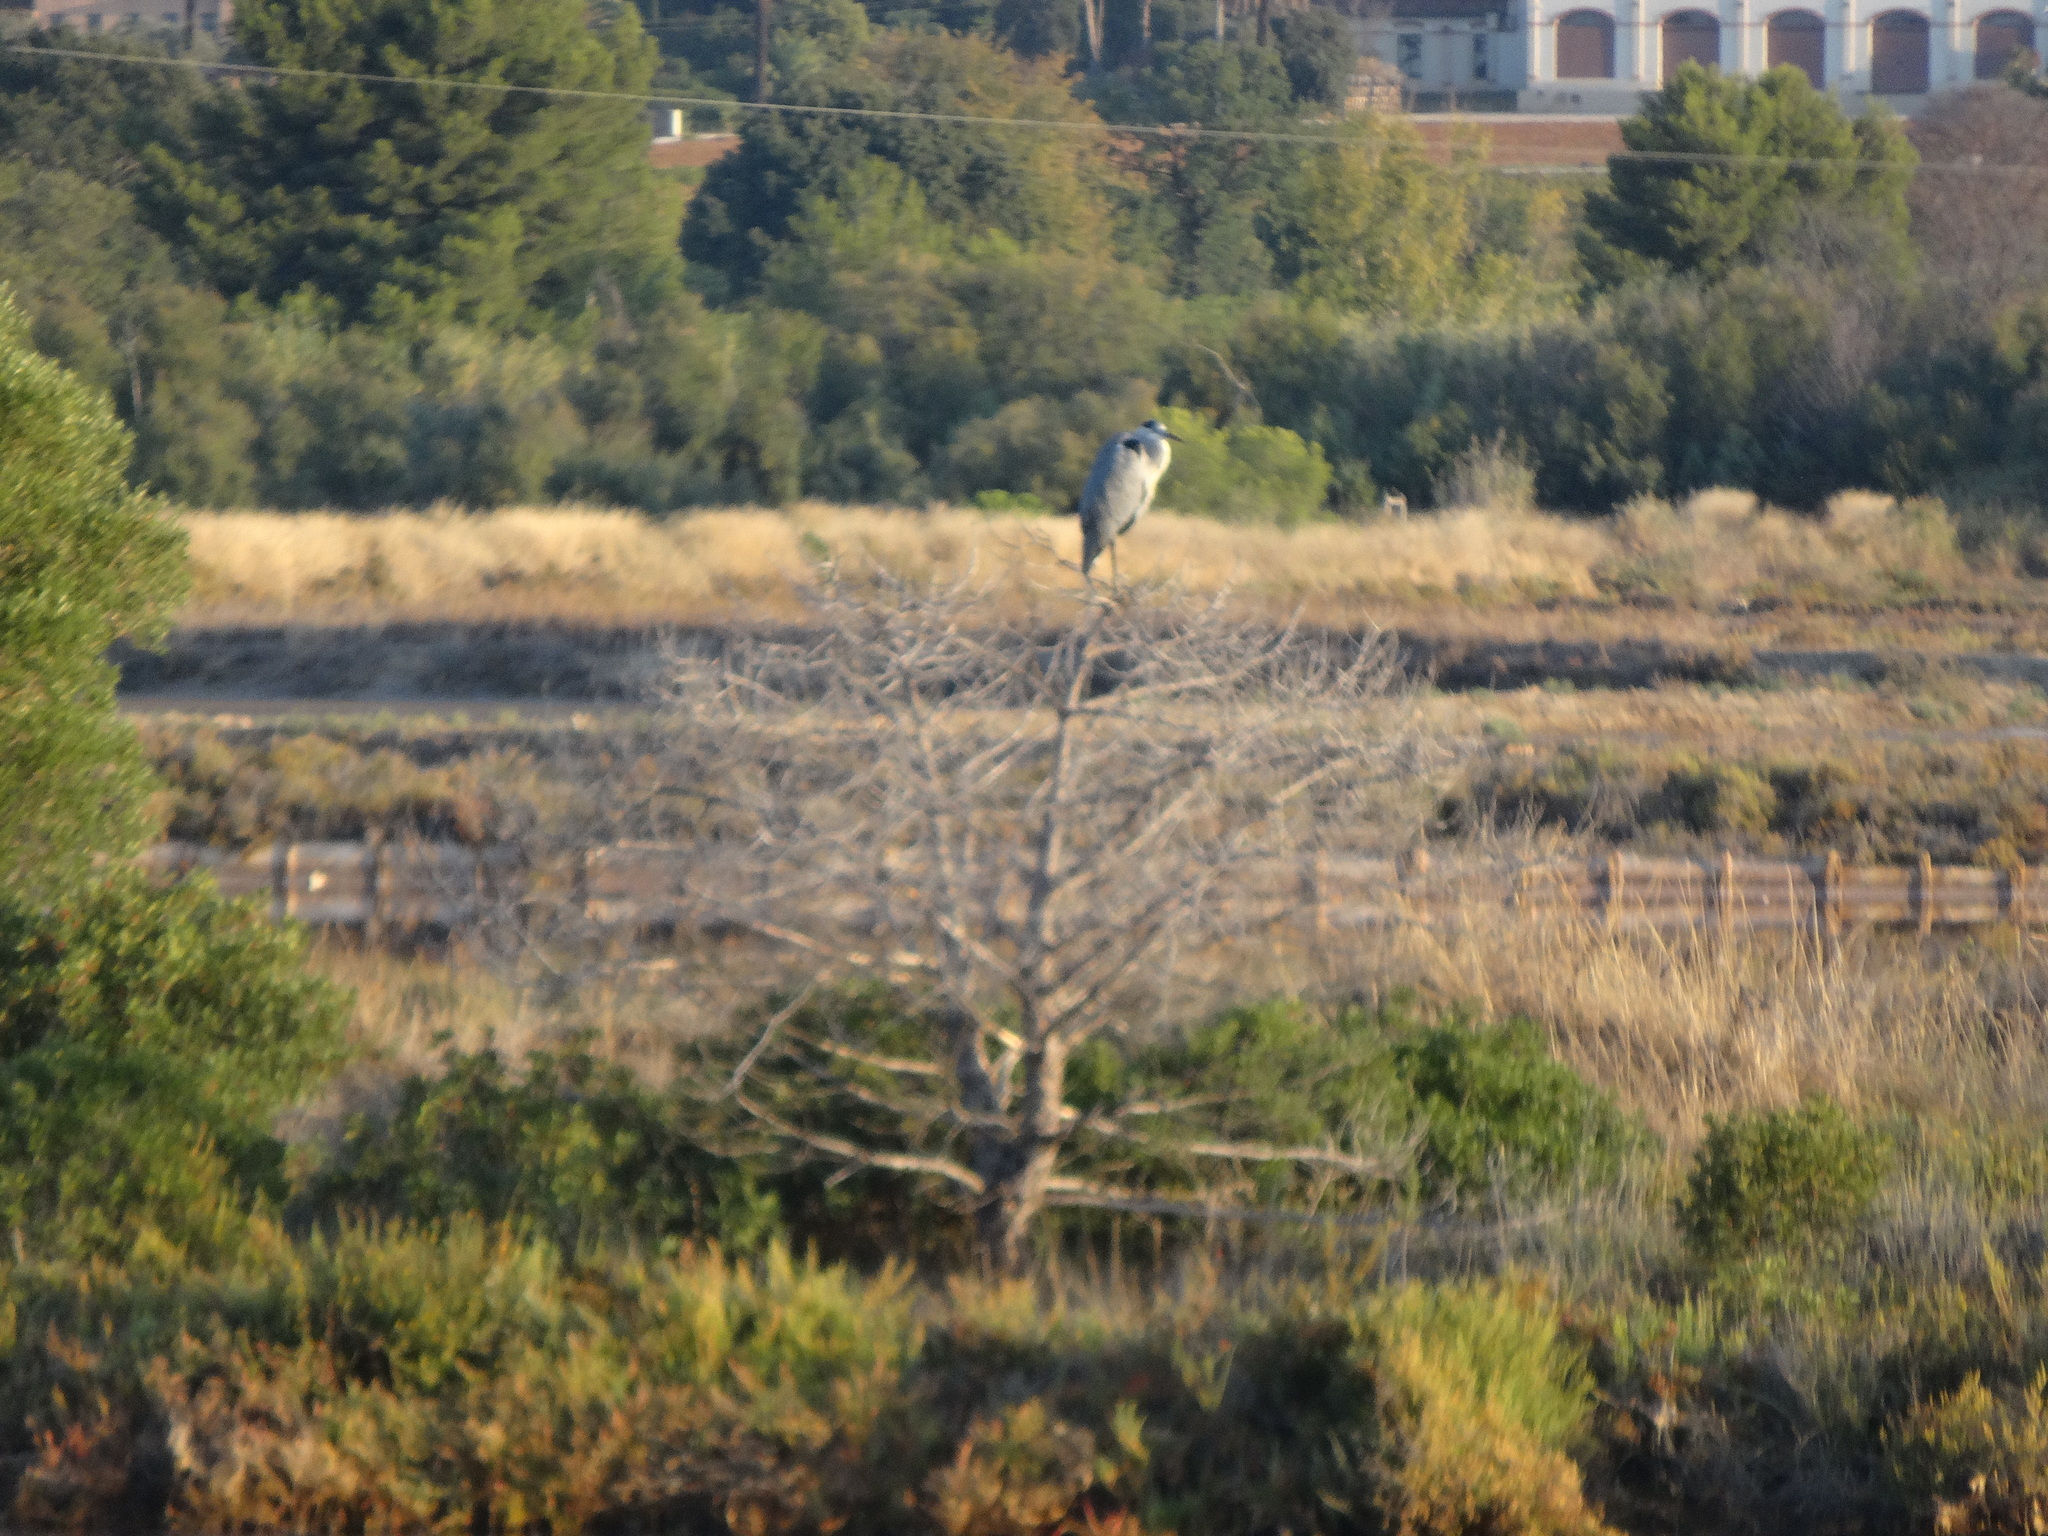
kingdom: Animalia
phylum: Chordata
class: Aves
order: Pelecaniformes
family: Ardeidae
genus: Ardea
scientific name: Ardea cinerea
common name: Grey heron
